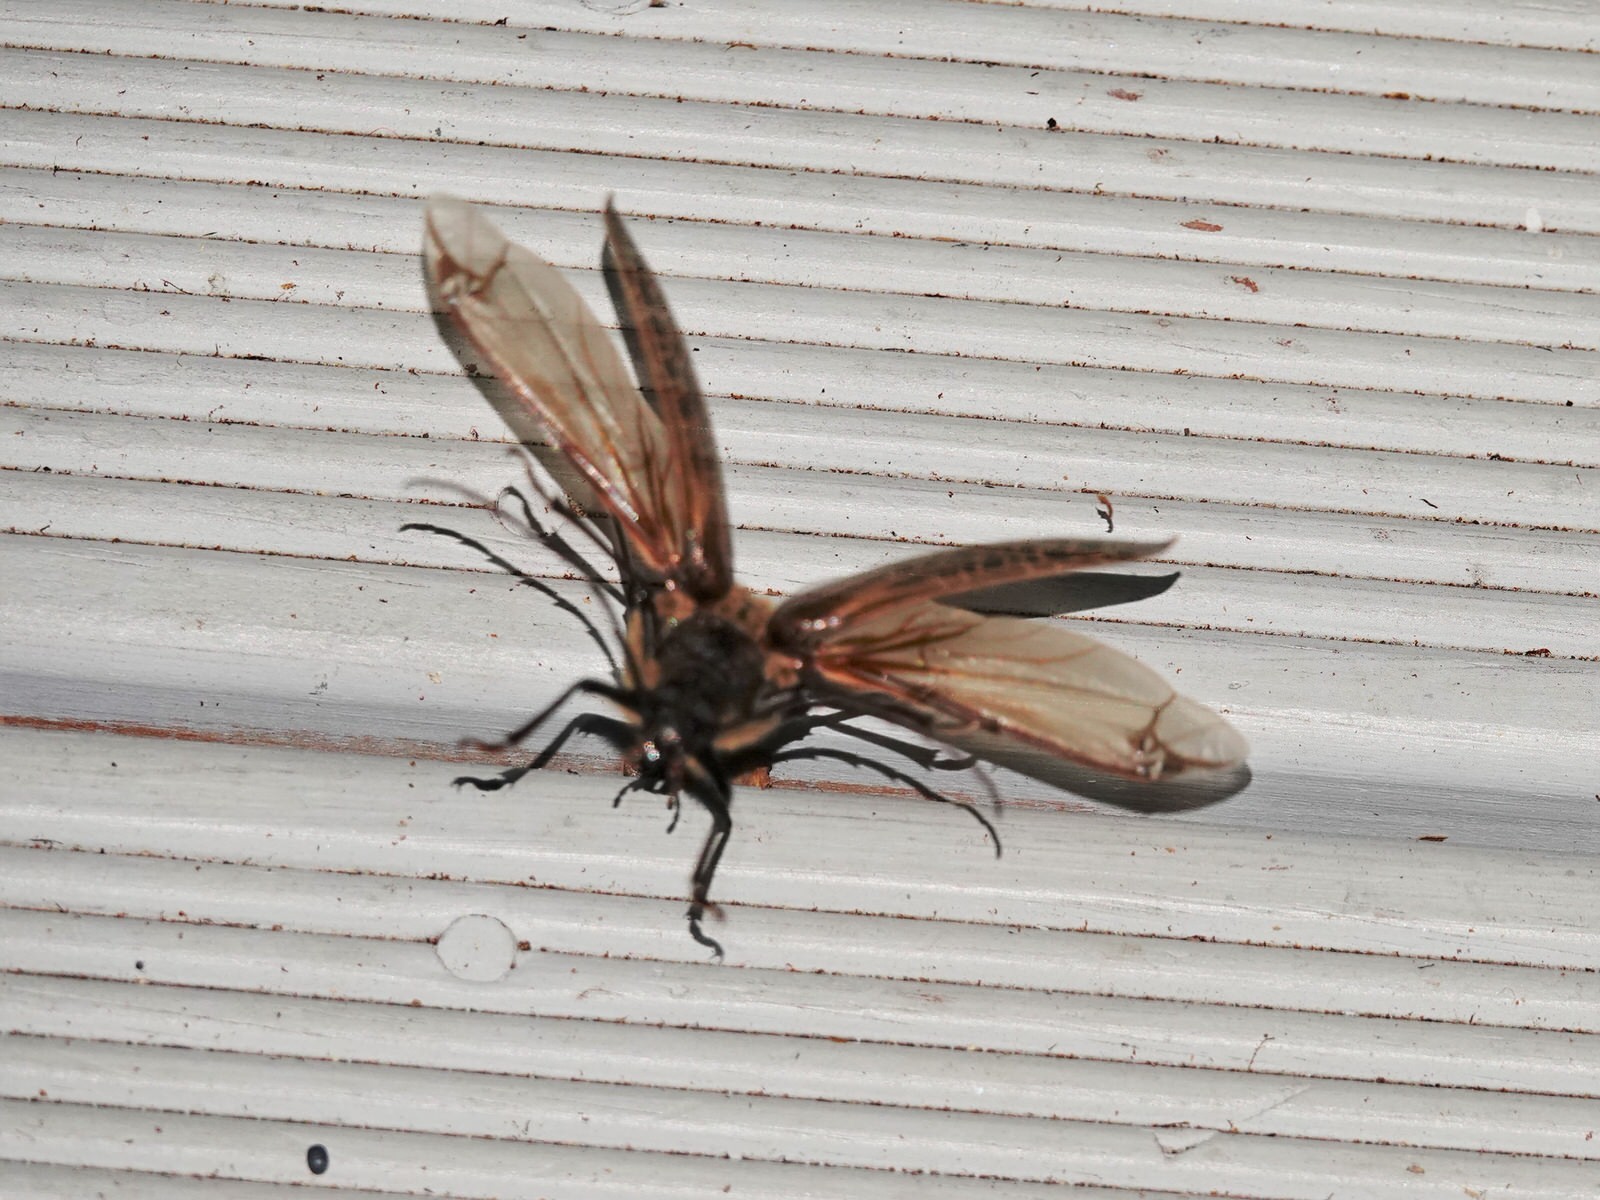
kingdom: Animalia
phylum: Arthropoda
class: Insecta
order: Coleoptera
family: Cerambycidae
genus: Prionoplus
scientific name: Prionoplus reticularis
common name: Huhu beetle
